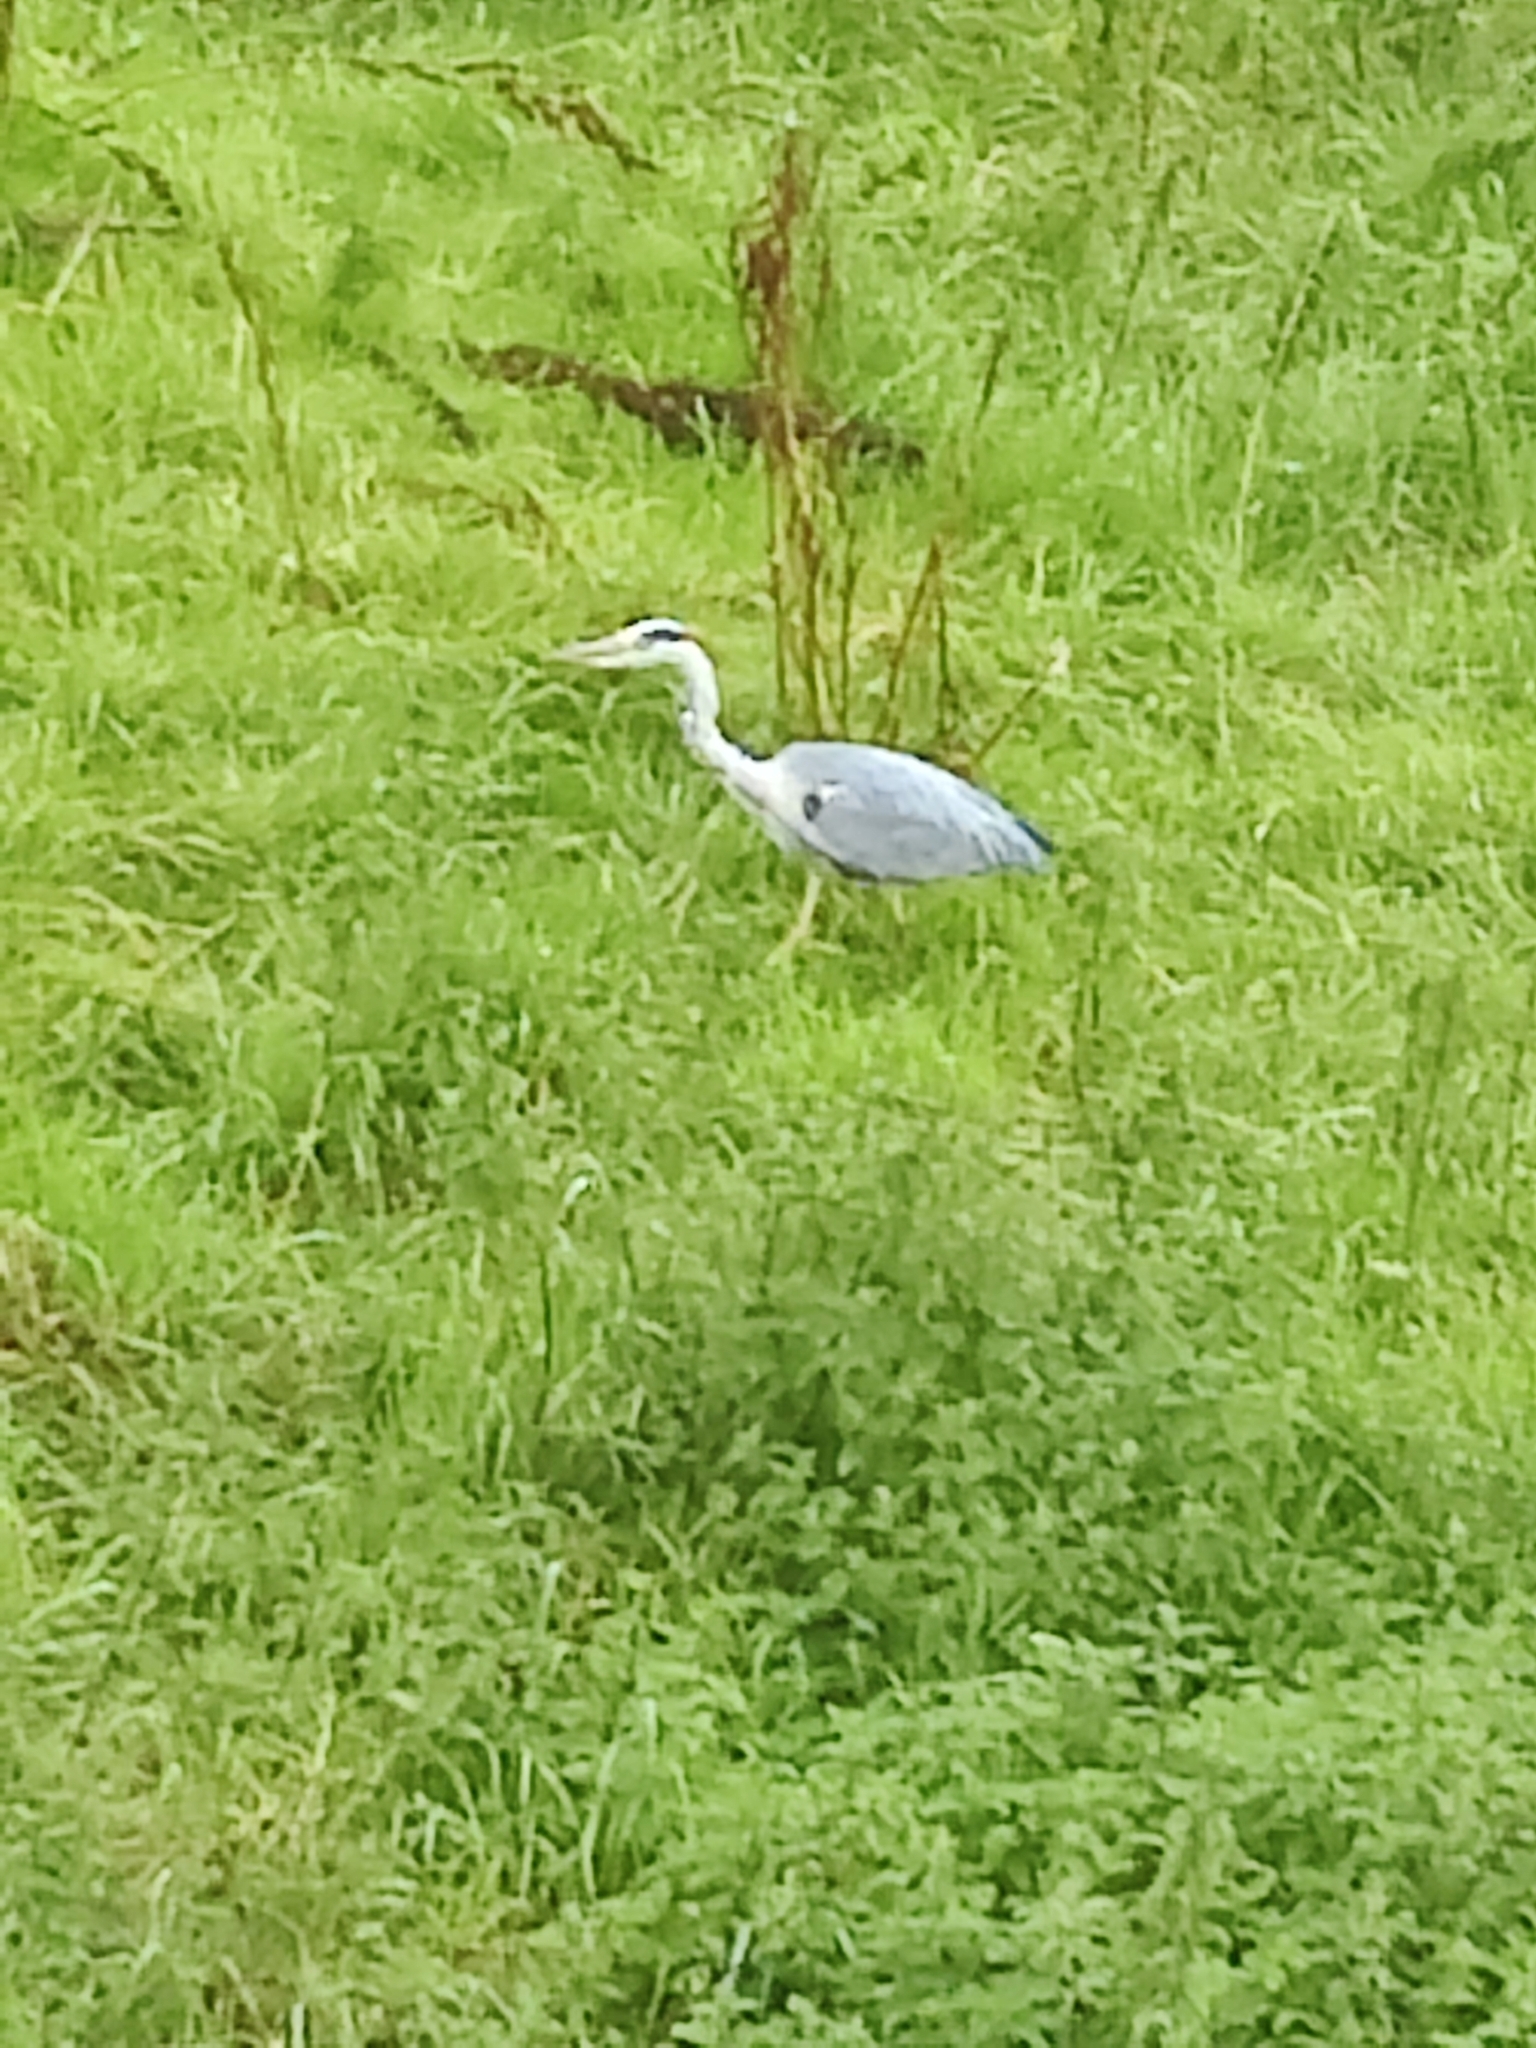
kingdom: Animalia
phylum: Chordata
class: Aves
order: Pelecaniformes
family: Ardeidae
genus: Ardea
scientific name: Ardea cinerea
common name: Grey heron
